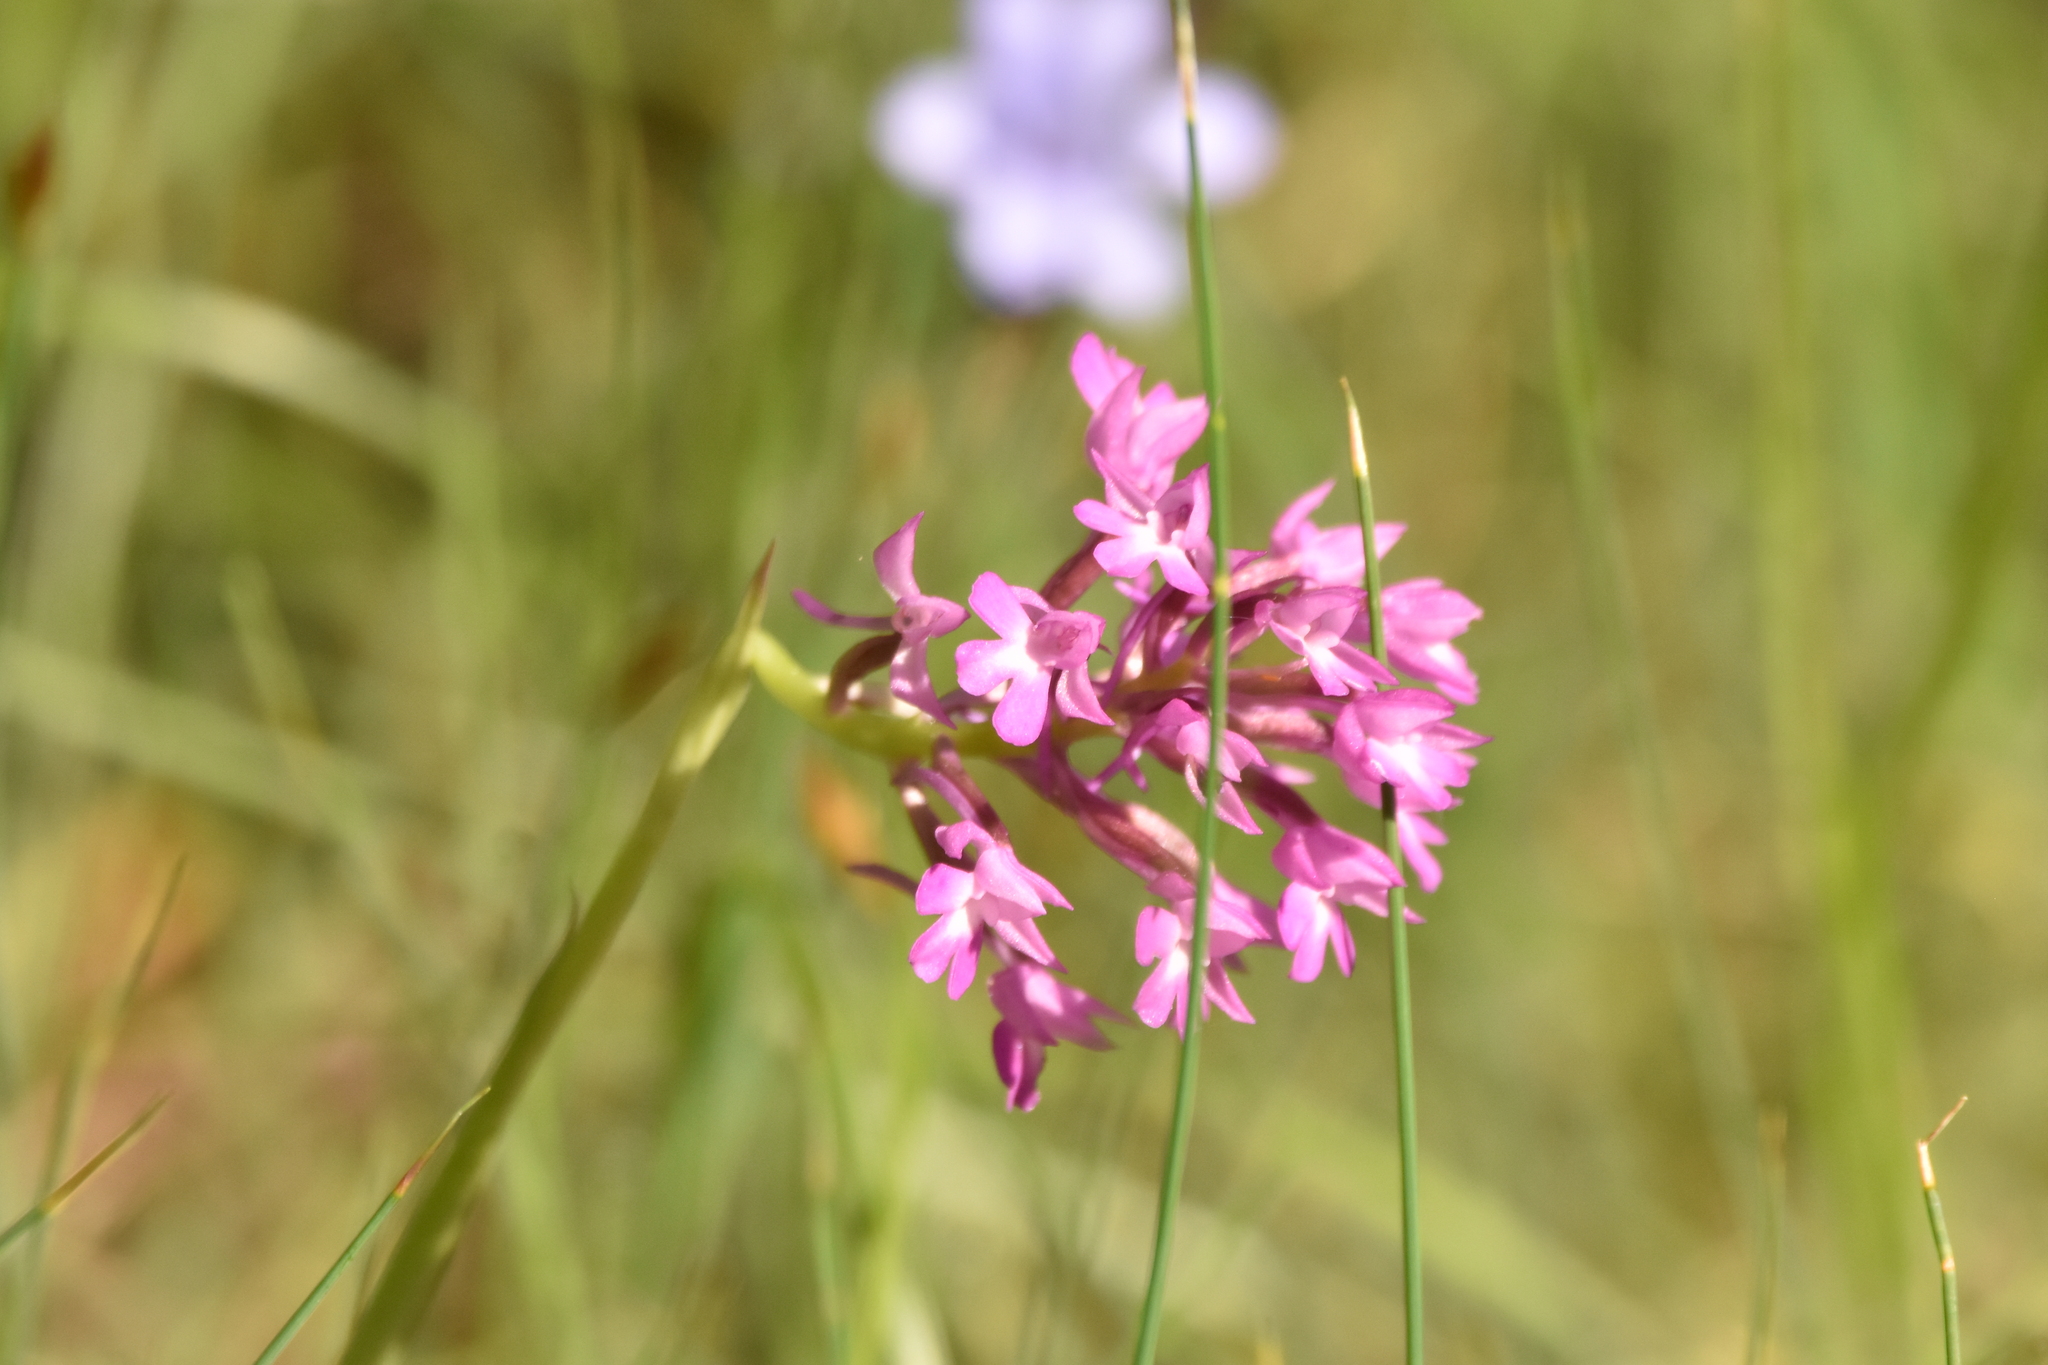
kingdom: Plantae
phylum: Tracheophyta
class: Liliopsida
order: Asparagales
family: Orchidaceae
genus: Anacamptis
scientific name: Anacamptis pyramidalis
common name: Pyramidal orchid
